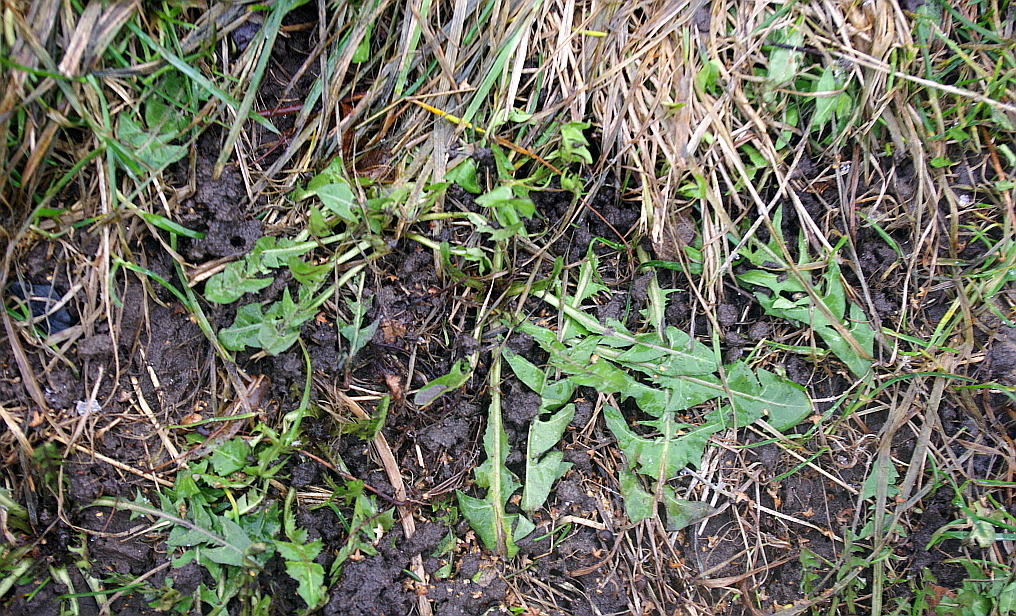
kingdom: Plantae
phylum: Tracheophyta
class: Magnoliopsida
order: Asterales
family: Asteraceae
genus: Taraxacum
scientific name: Taraxacum officinale
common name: Common dandelion
